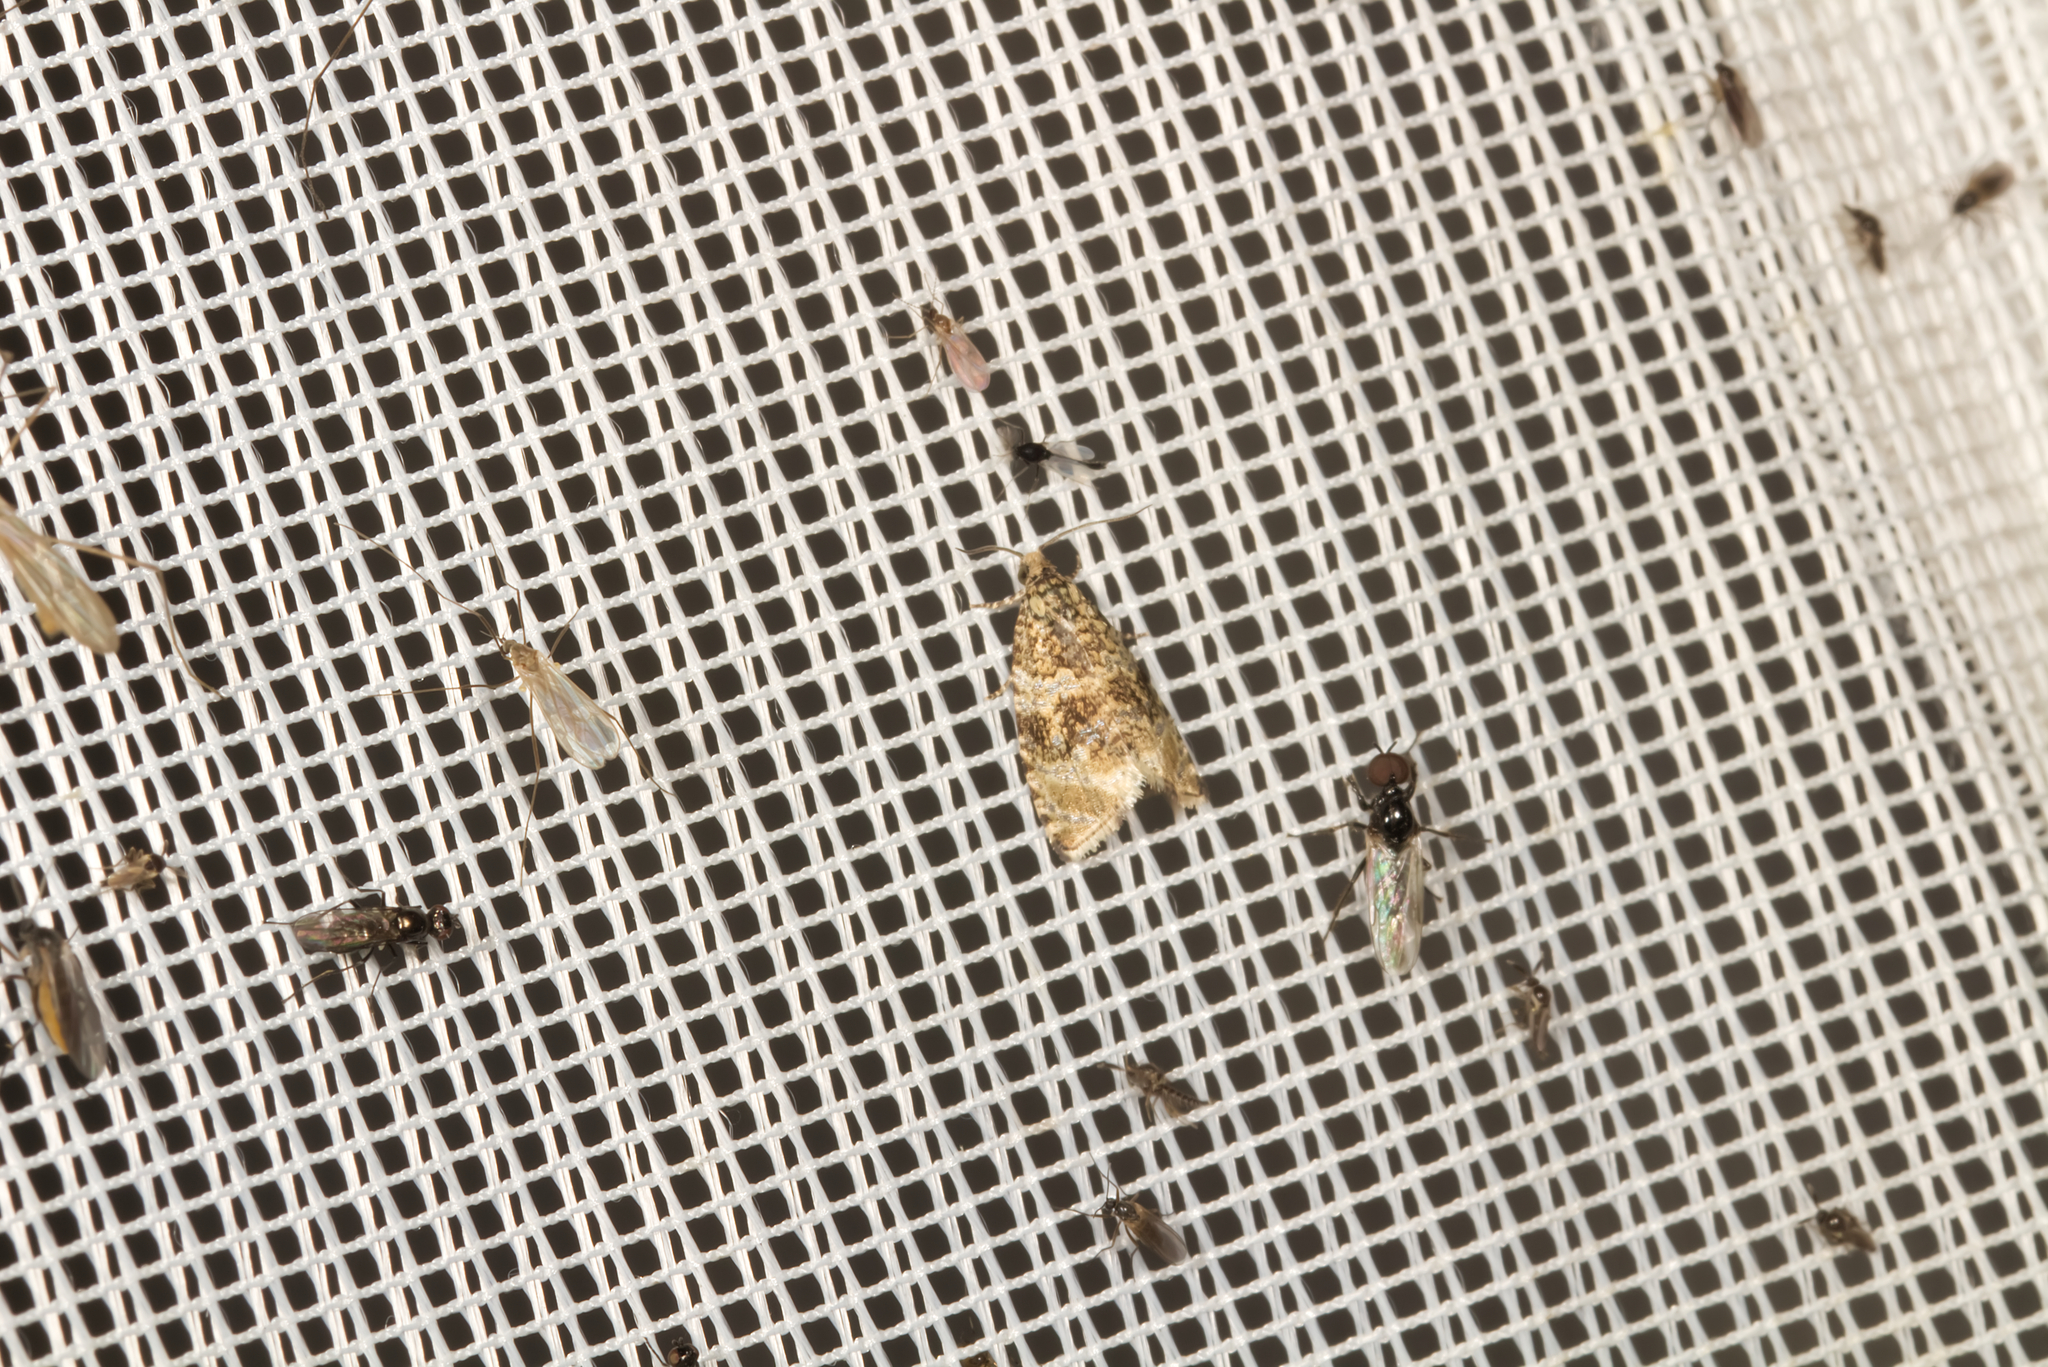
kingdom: Animalia
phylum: Arthropoda
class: Insecta
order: Lepidoptera
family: Tortricidae
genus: Syricoris
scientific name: Syricoris lacunana
